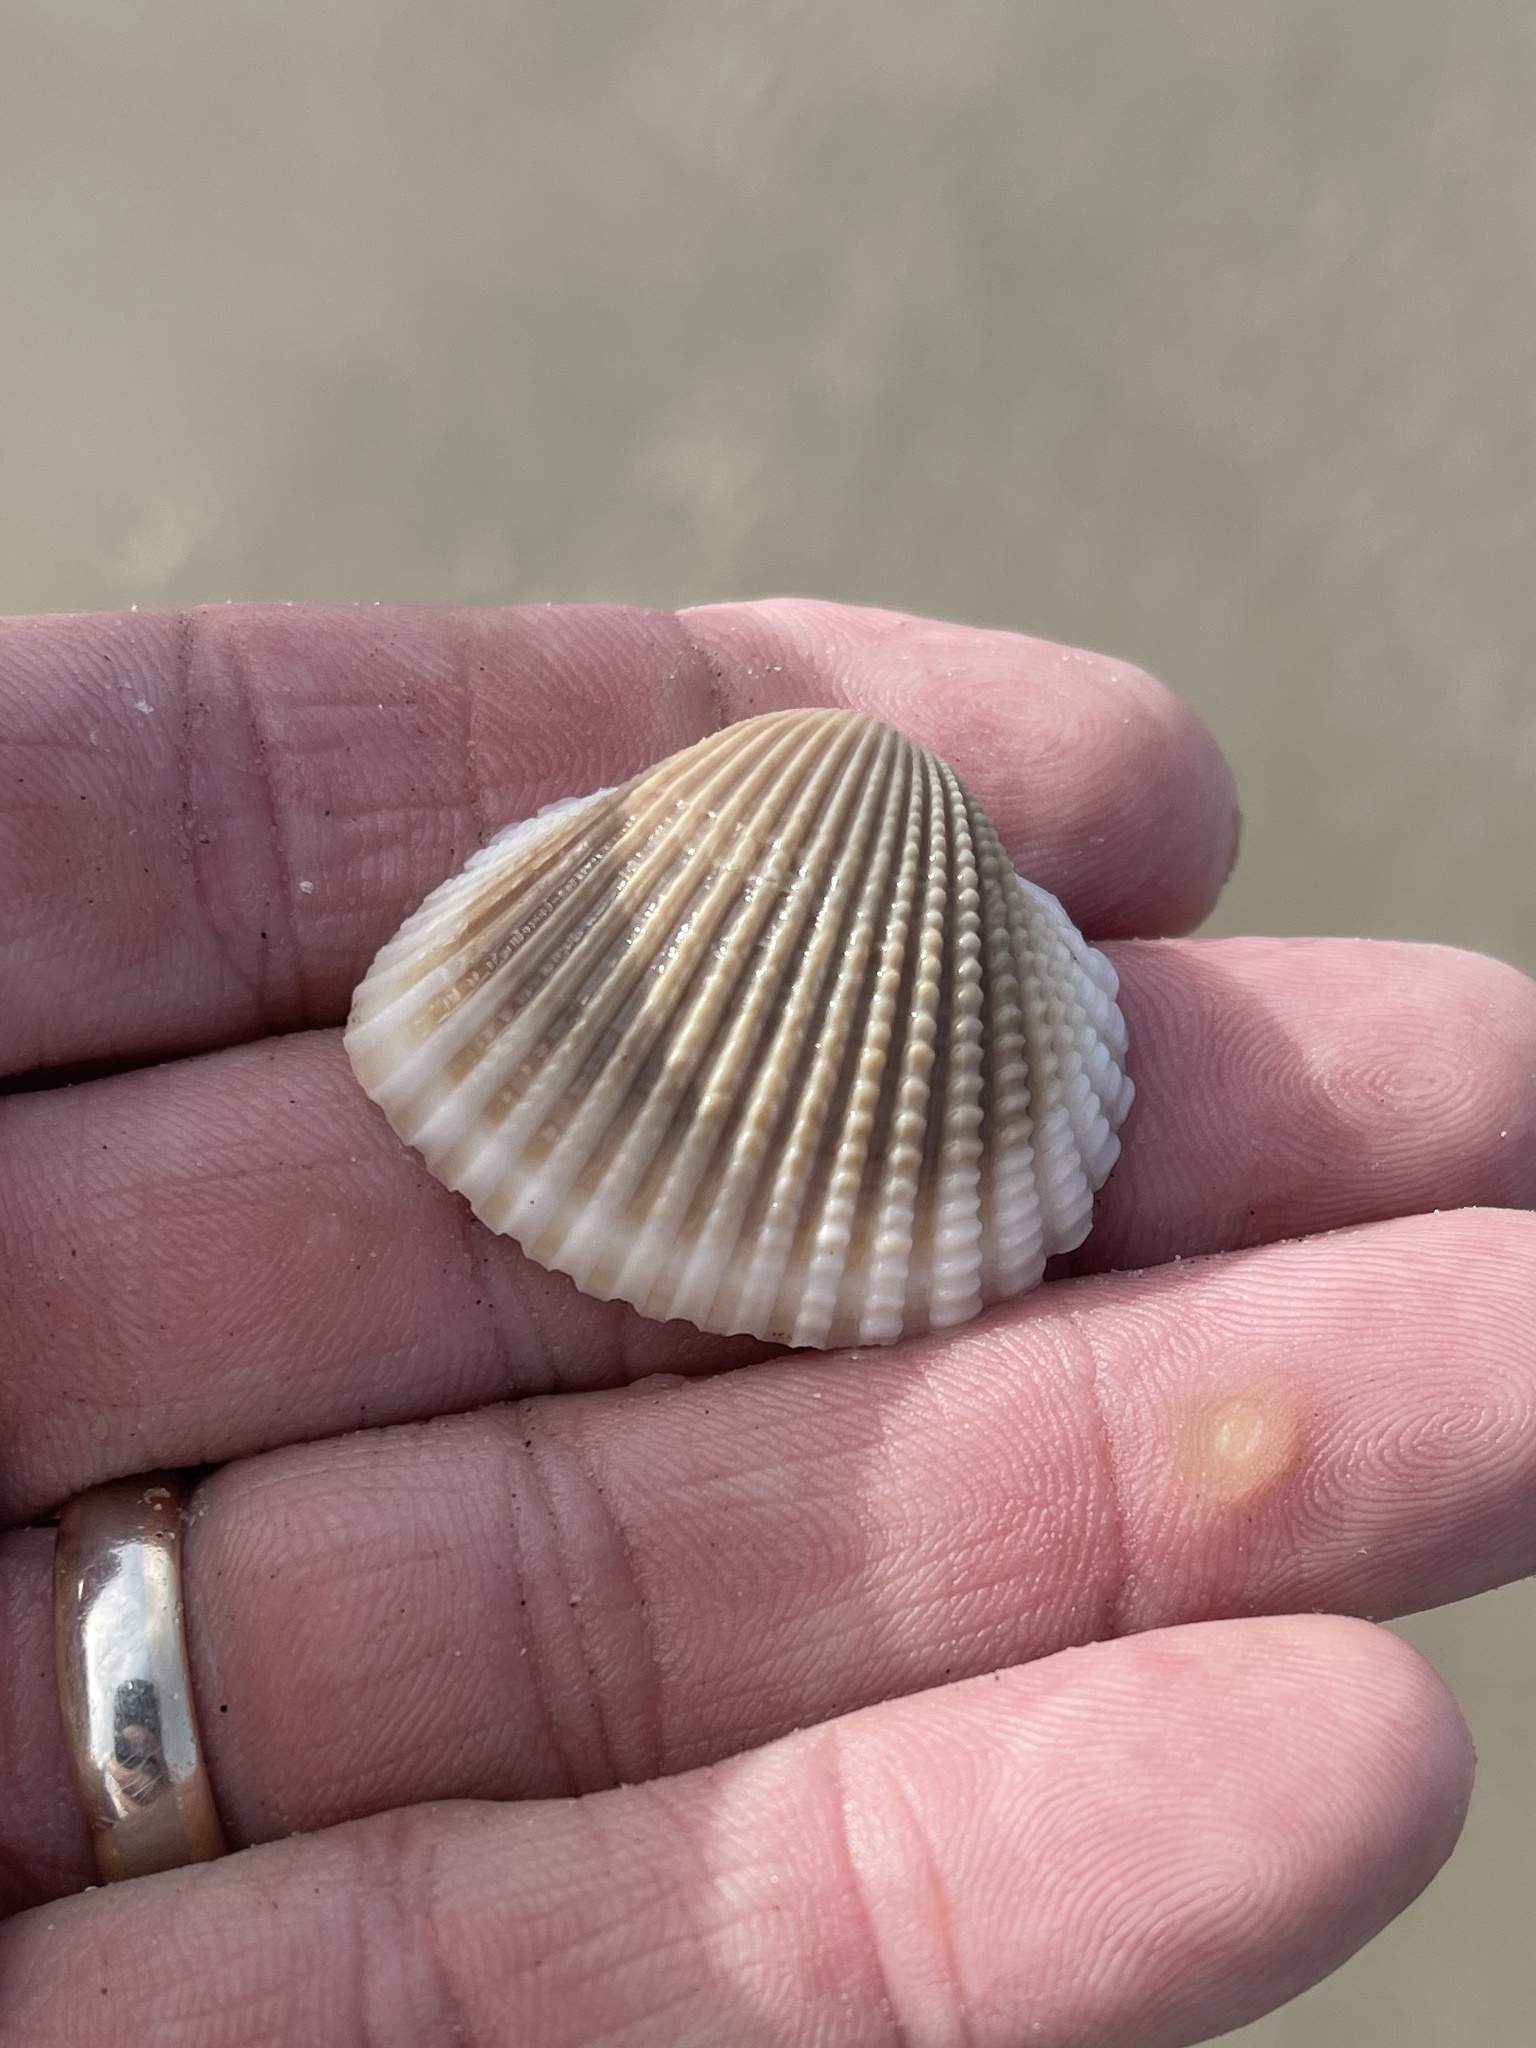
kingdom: Animalia
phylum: Mollusca
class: Bivalvia
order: Arcida
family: Arcidae
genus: Anadara
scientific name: Anadara brasiliana
